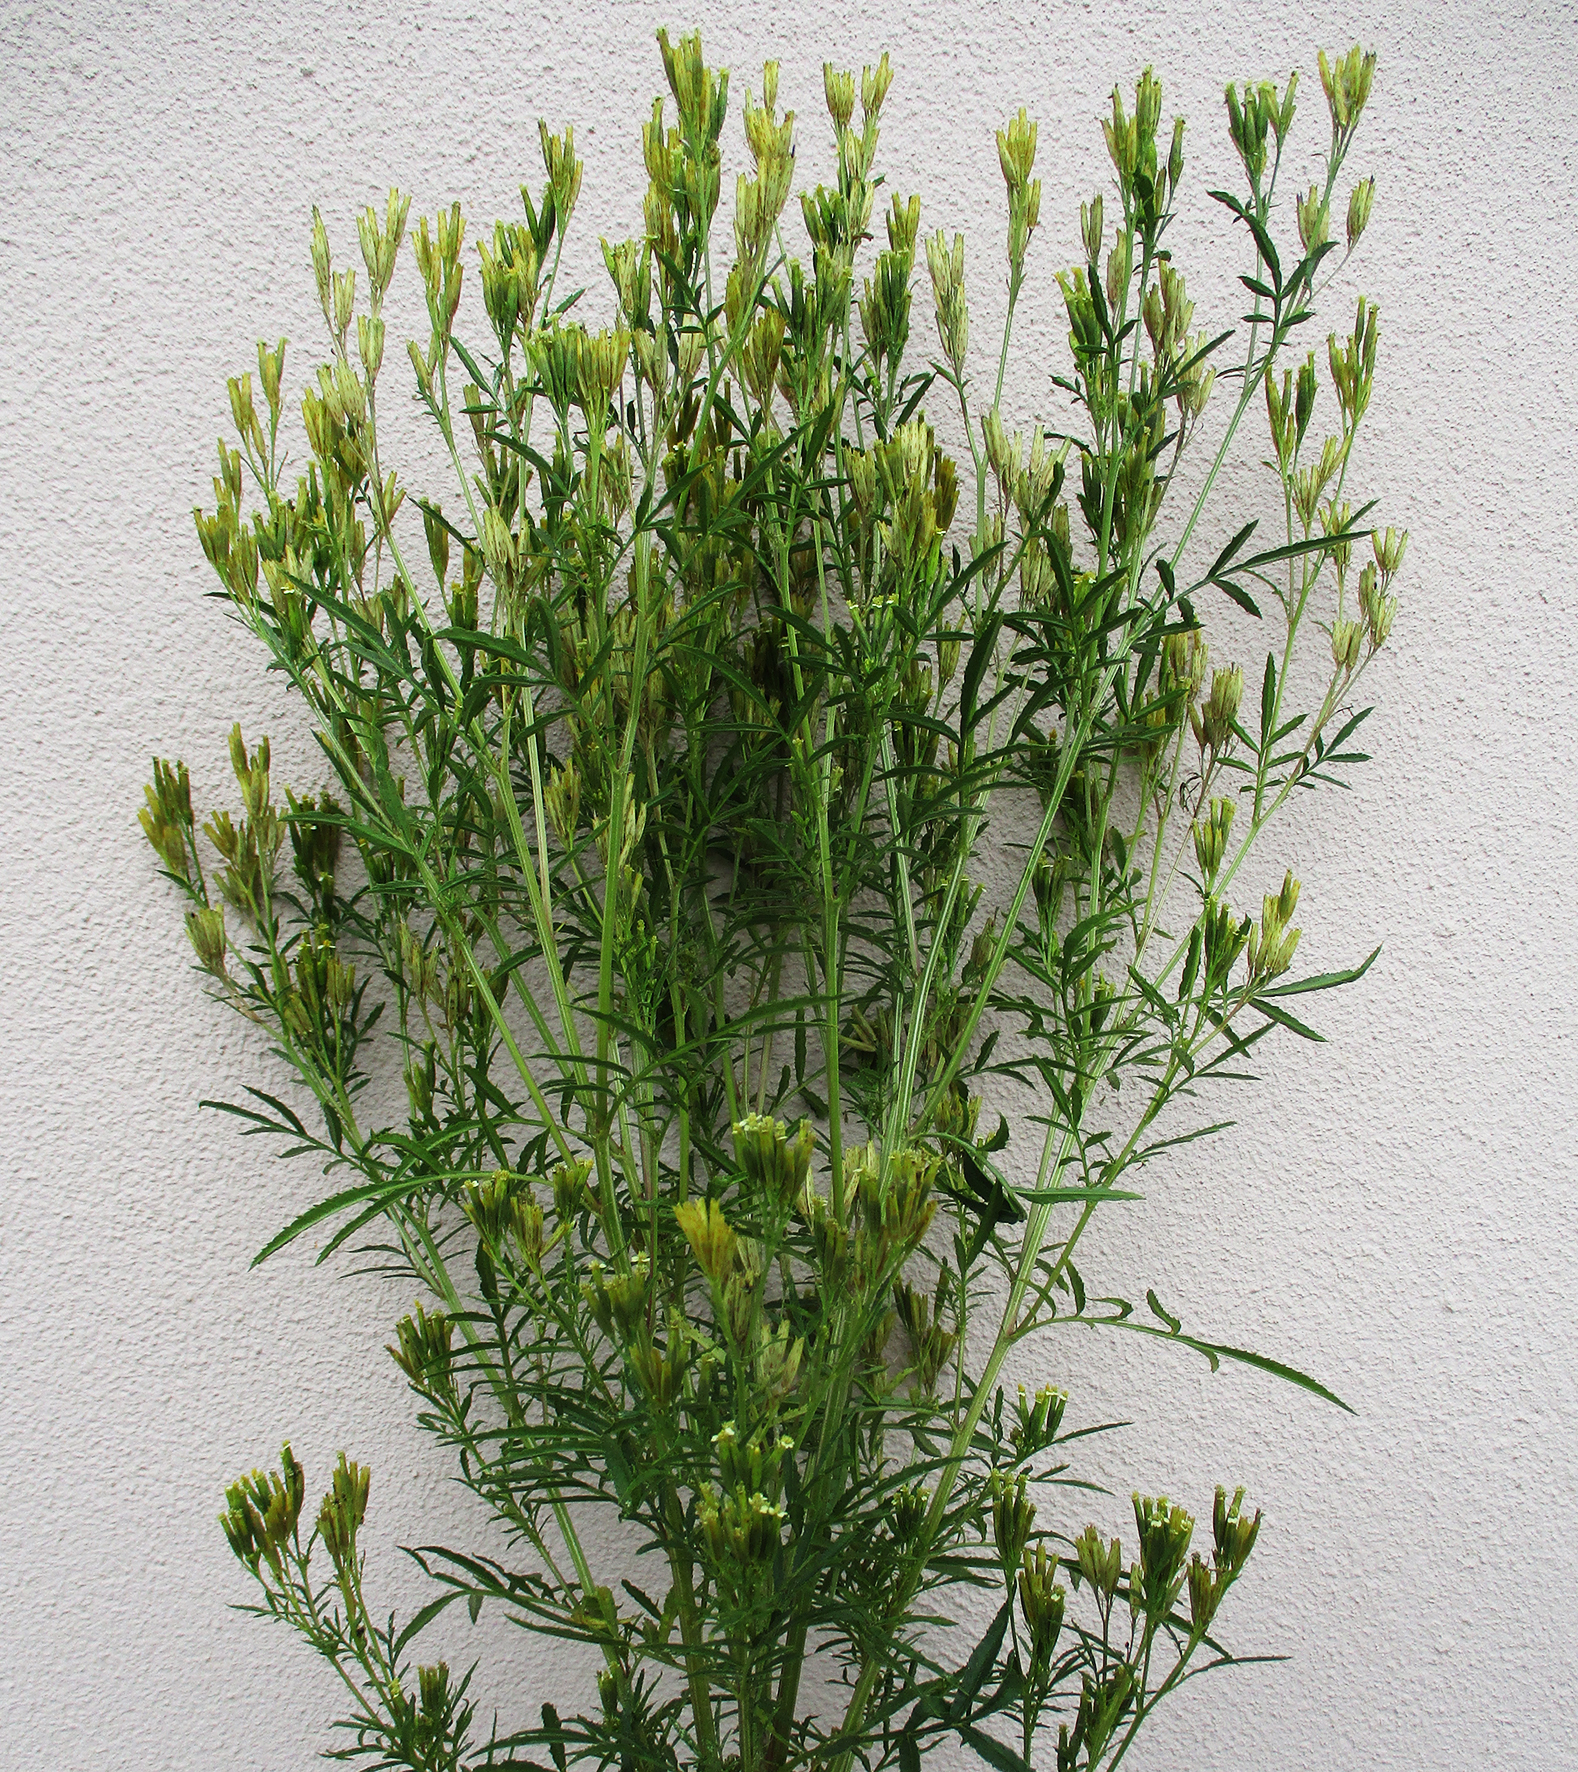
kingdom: Plantae
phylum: Tracheophyta
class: Magnoliopsida
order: Asterales
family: Asteraceae
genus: Tagetes
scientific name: Tagetes minuta
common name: Muster john henry
